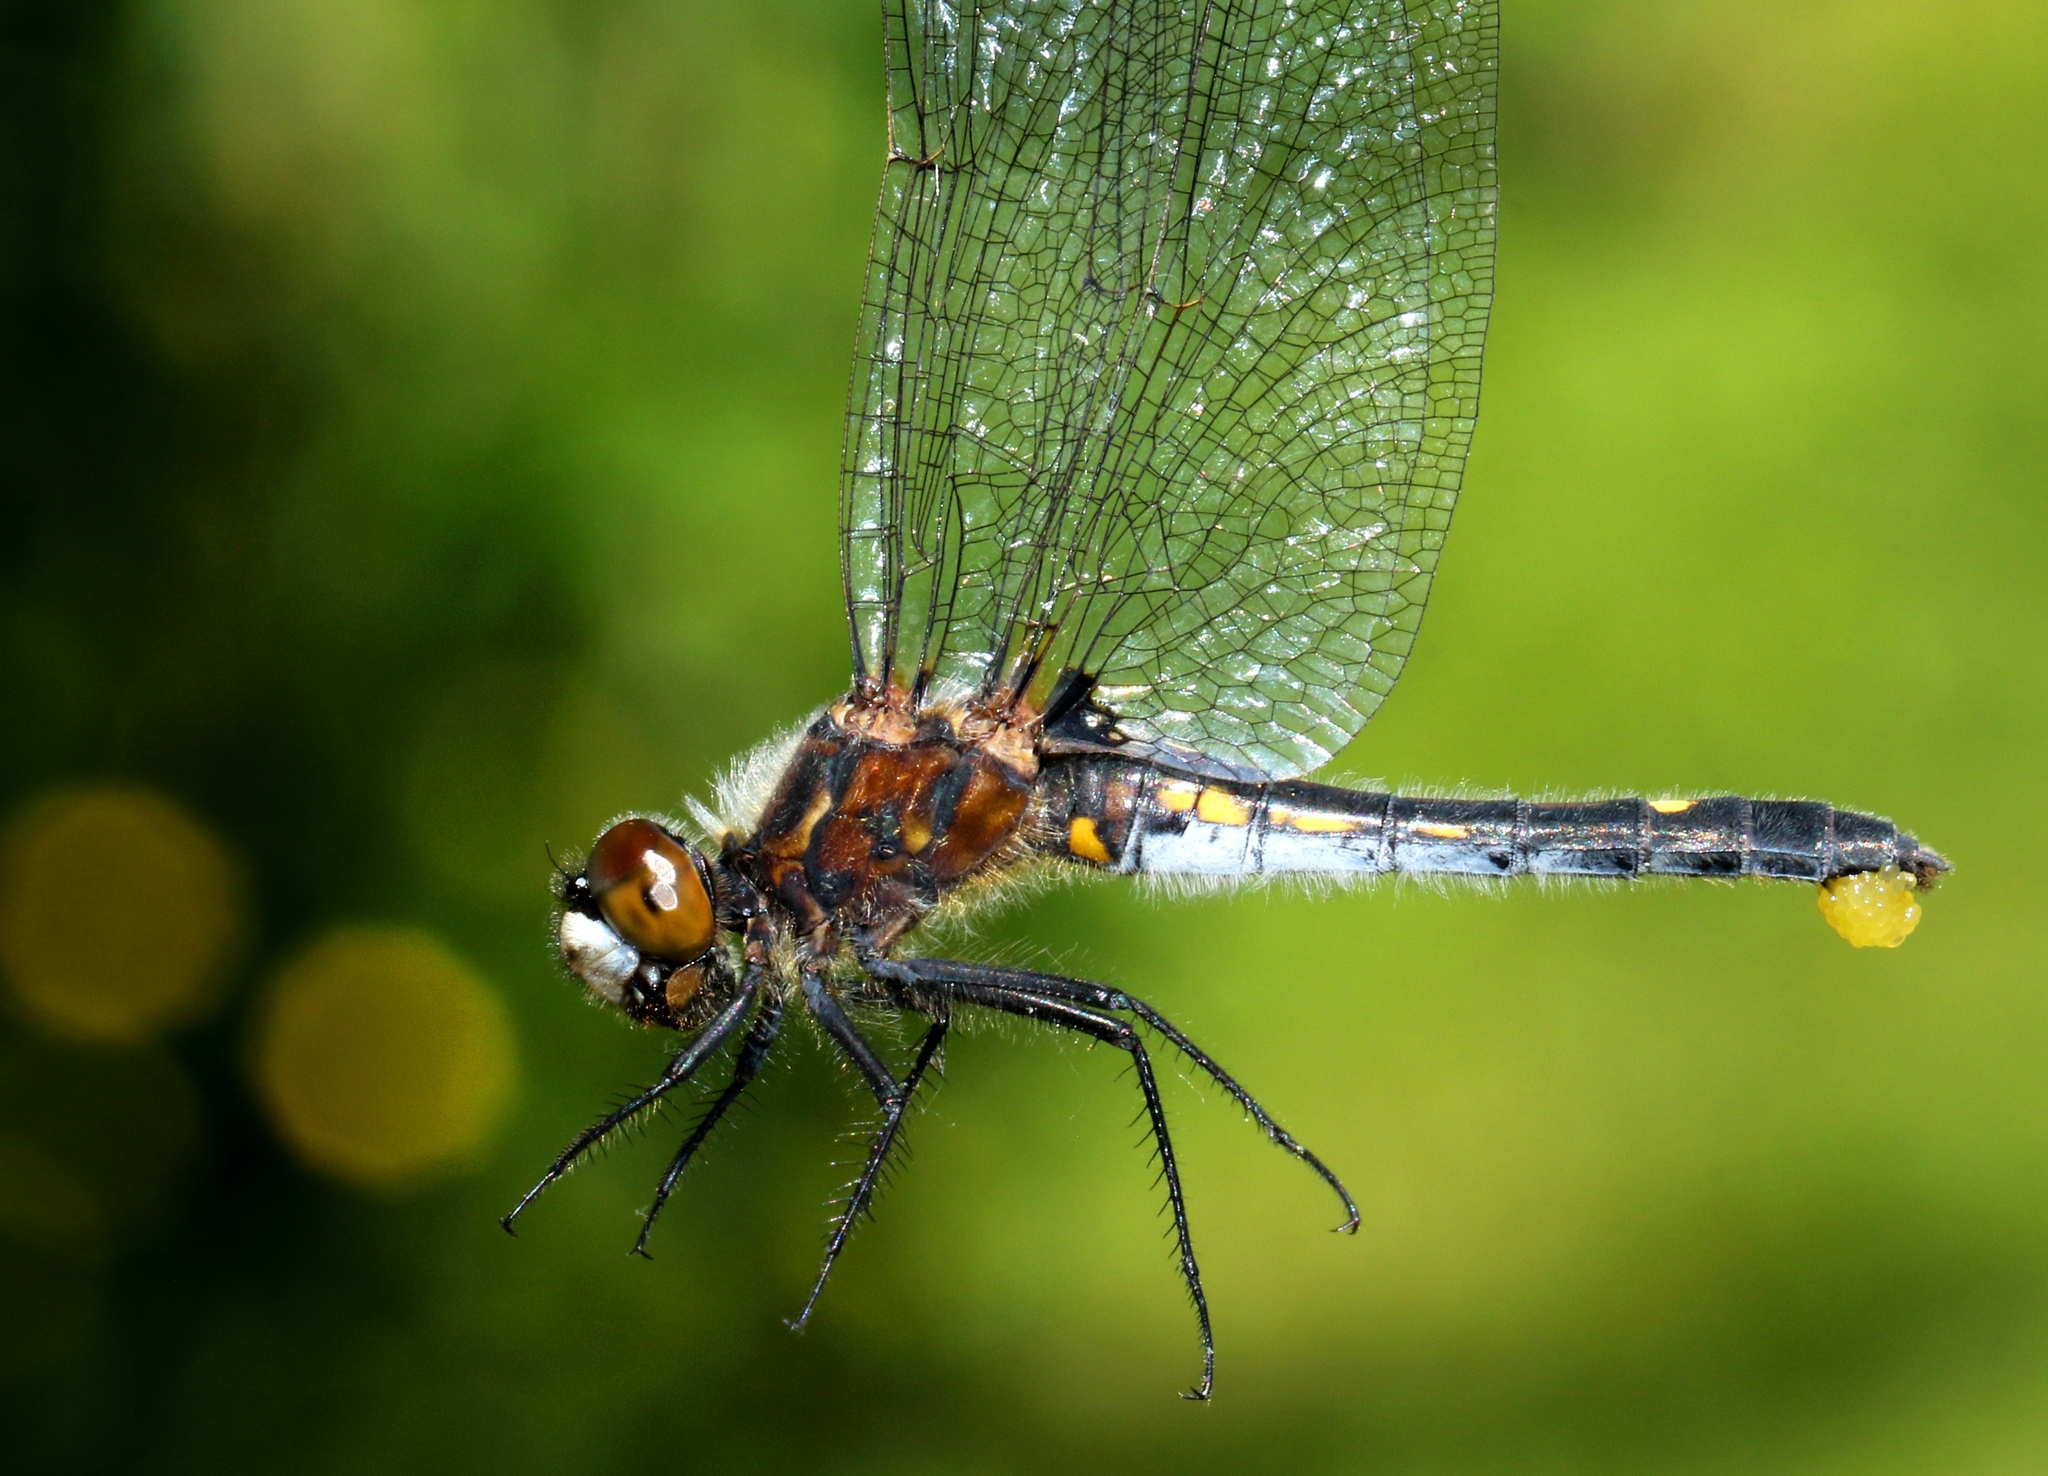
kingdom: Animalia
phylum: Arthropoda
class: Insecta
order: Odonata
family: Libellulidae
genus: Leucorrhinia
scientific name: Leucorrhinia intacta
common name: Dot-tailed whiteface
